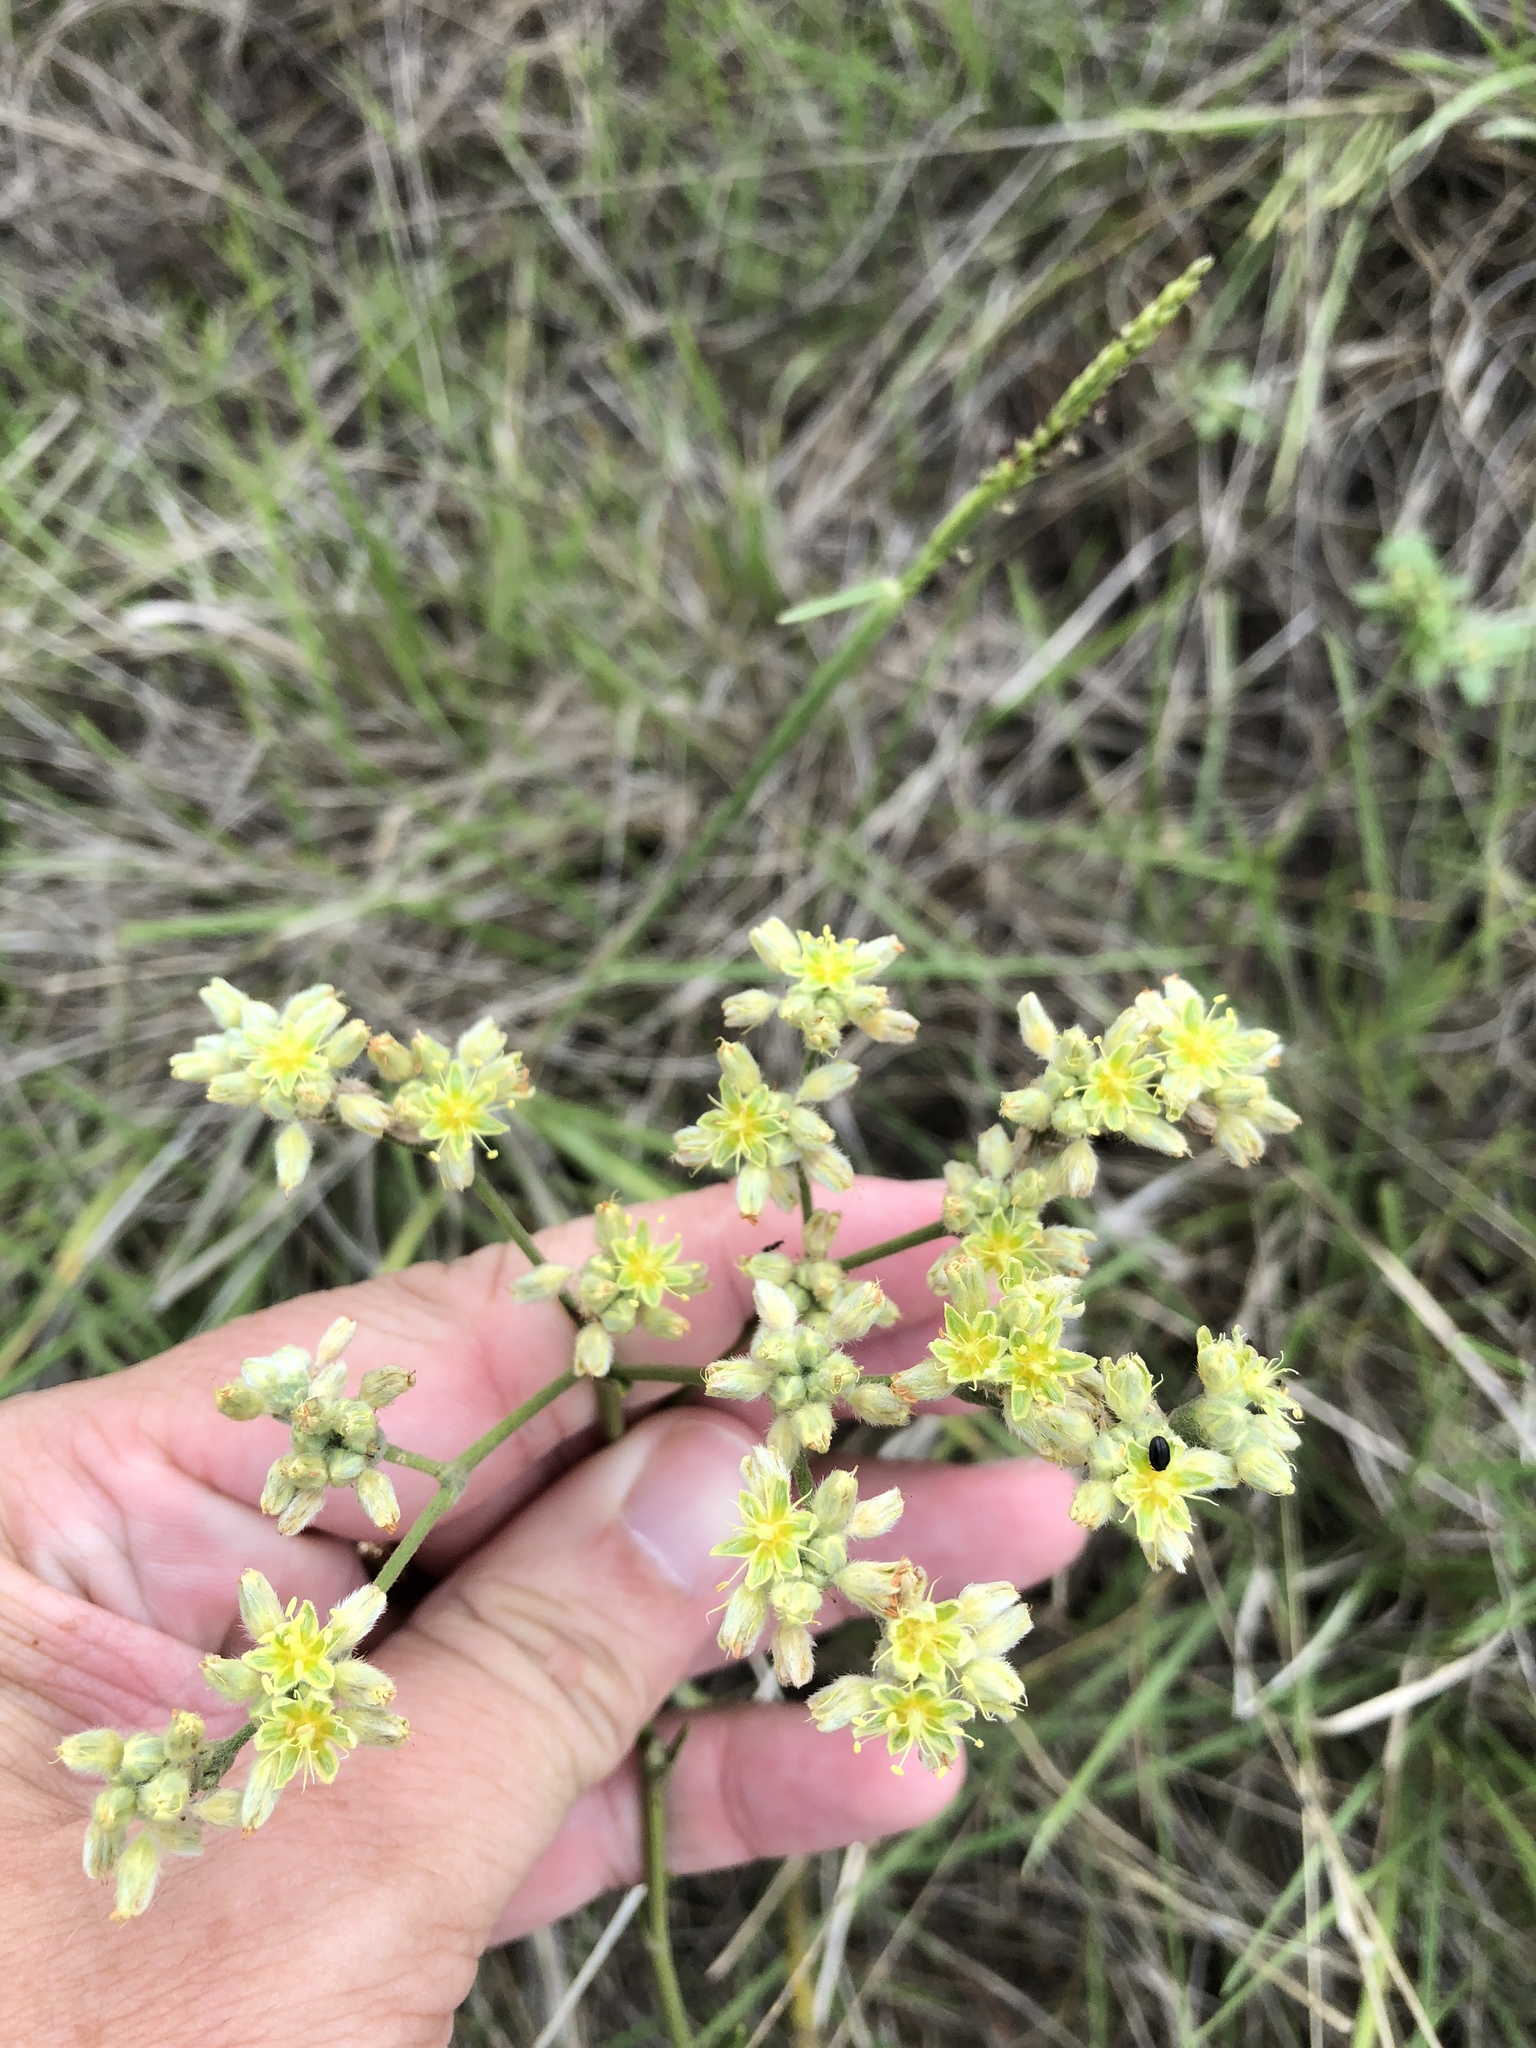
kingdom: Plantae
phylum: Tracheophyta
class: Magnoliopsida
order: Caryophyllales
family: Polygonaceae
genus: Eriogonum
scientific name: Eriogonum longifolium
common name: Longleaf wild buckwheat
